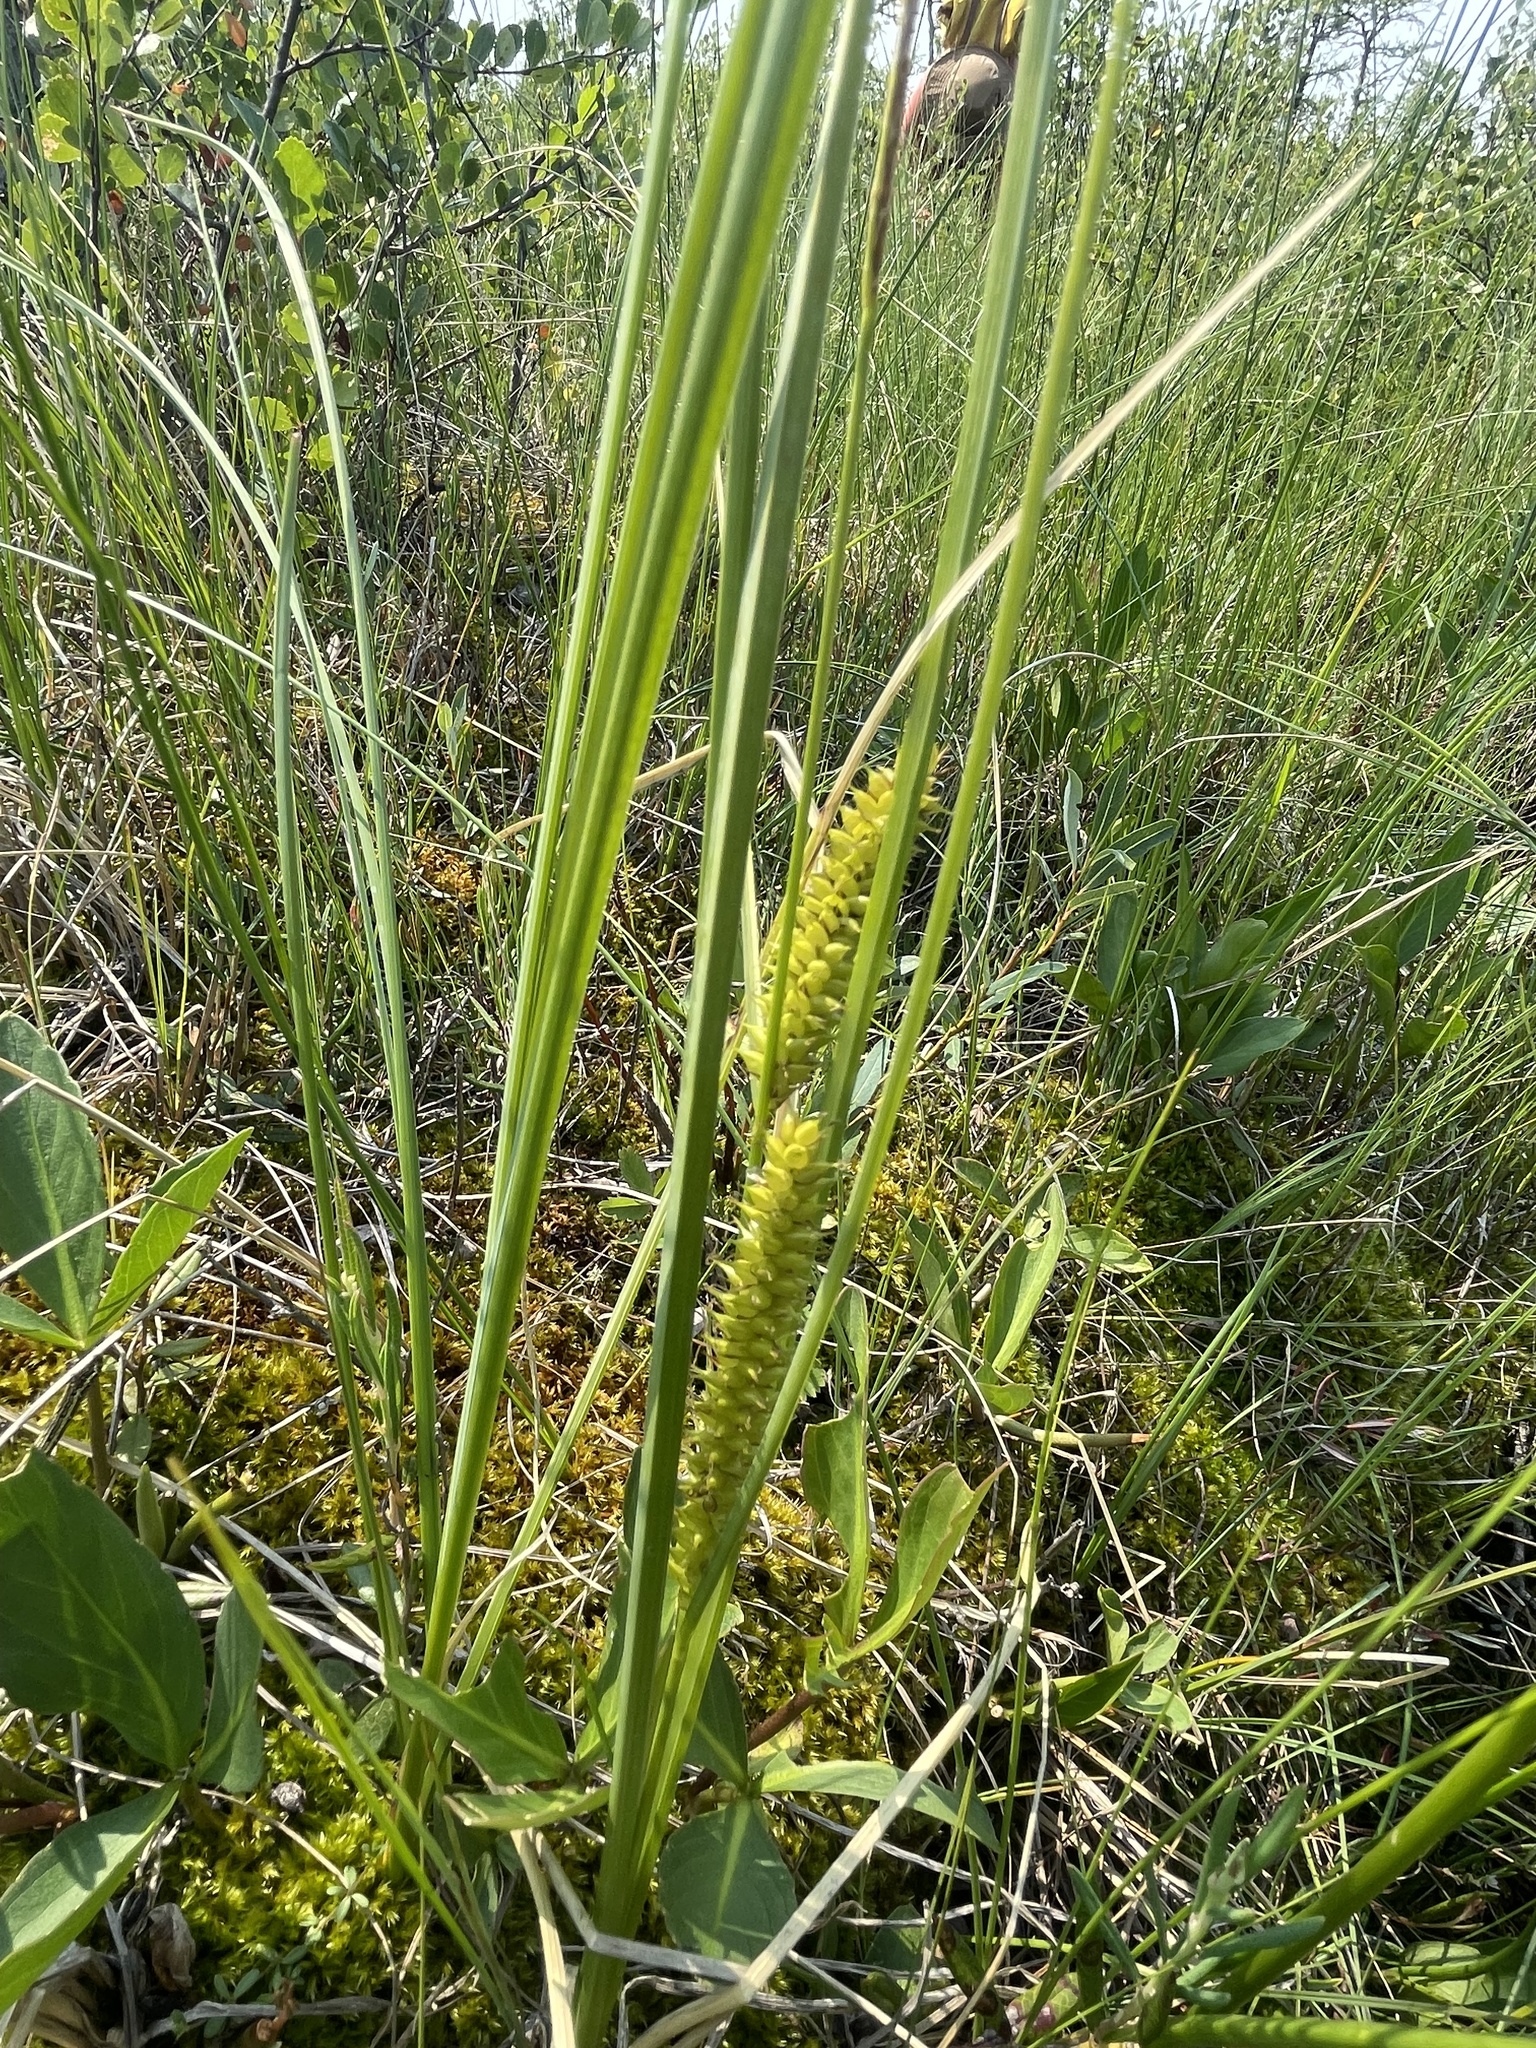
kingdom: Plantae
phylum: Tracheophyta
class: Liliopsida
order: Poales
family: Cyperaceae
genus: Carex
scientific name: Carex utriculata
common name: Beaked sedge
